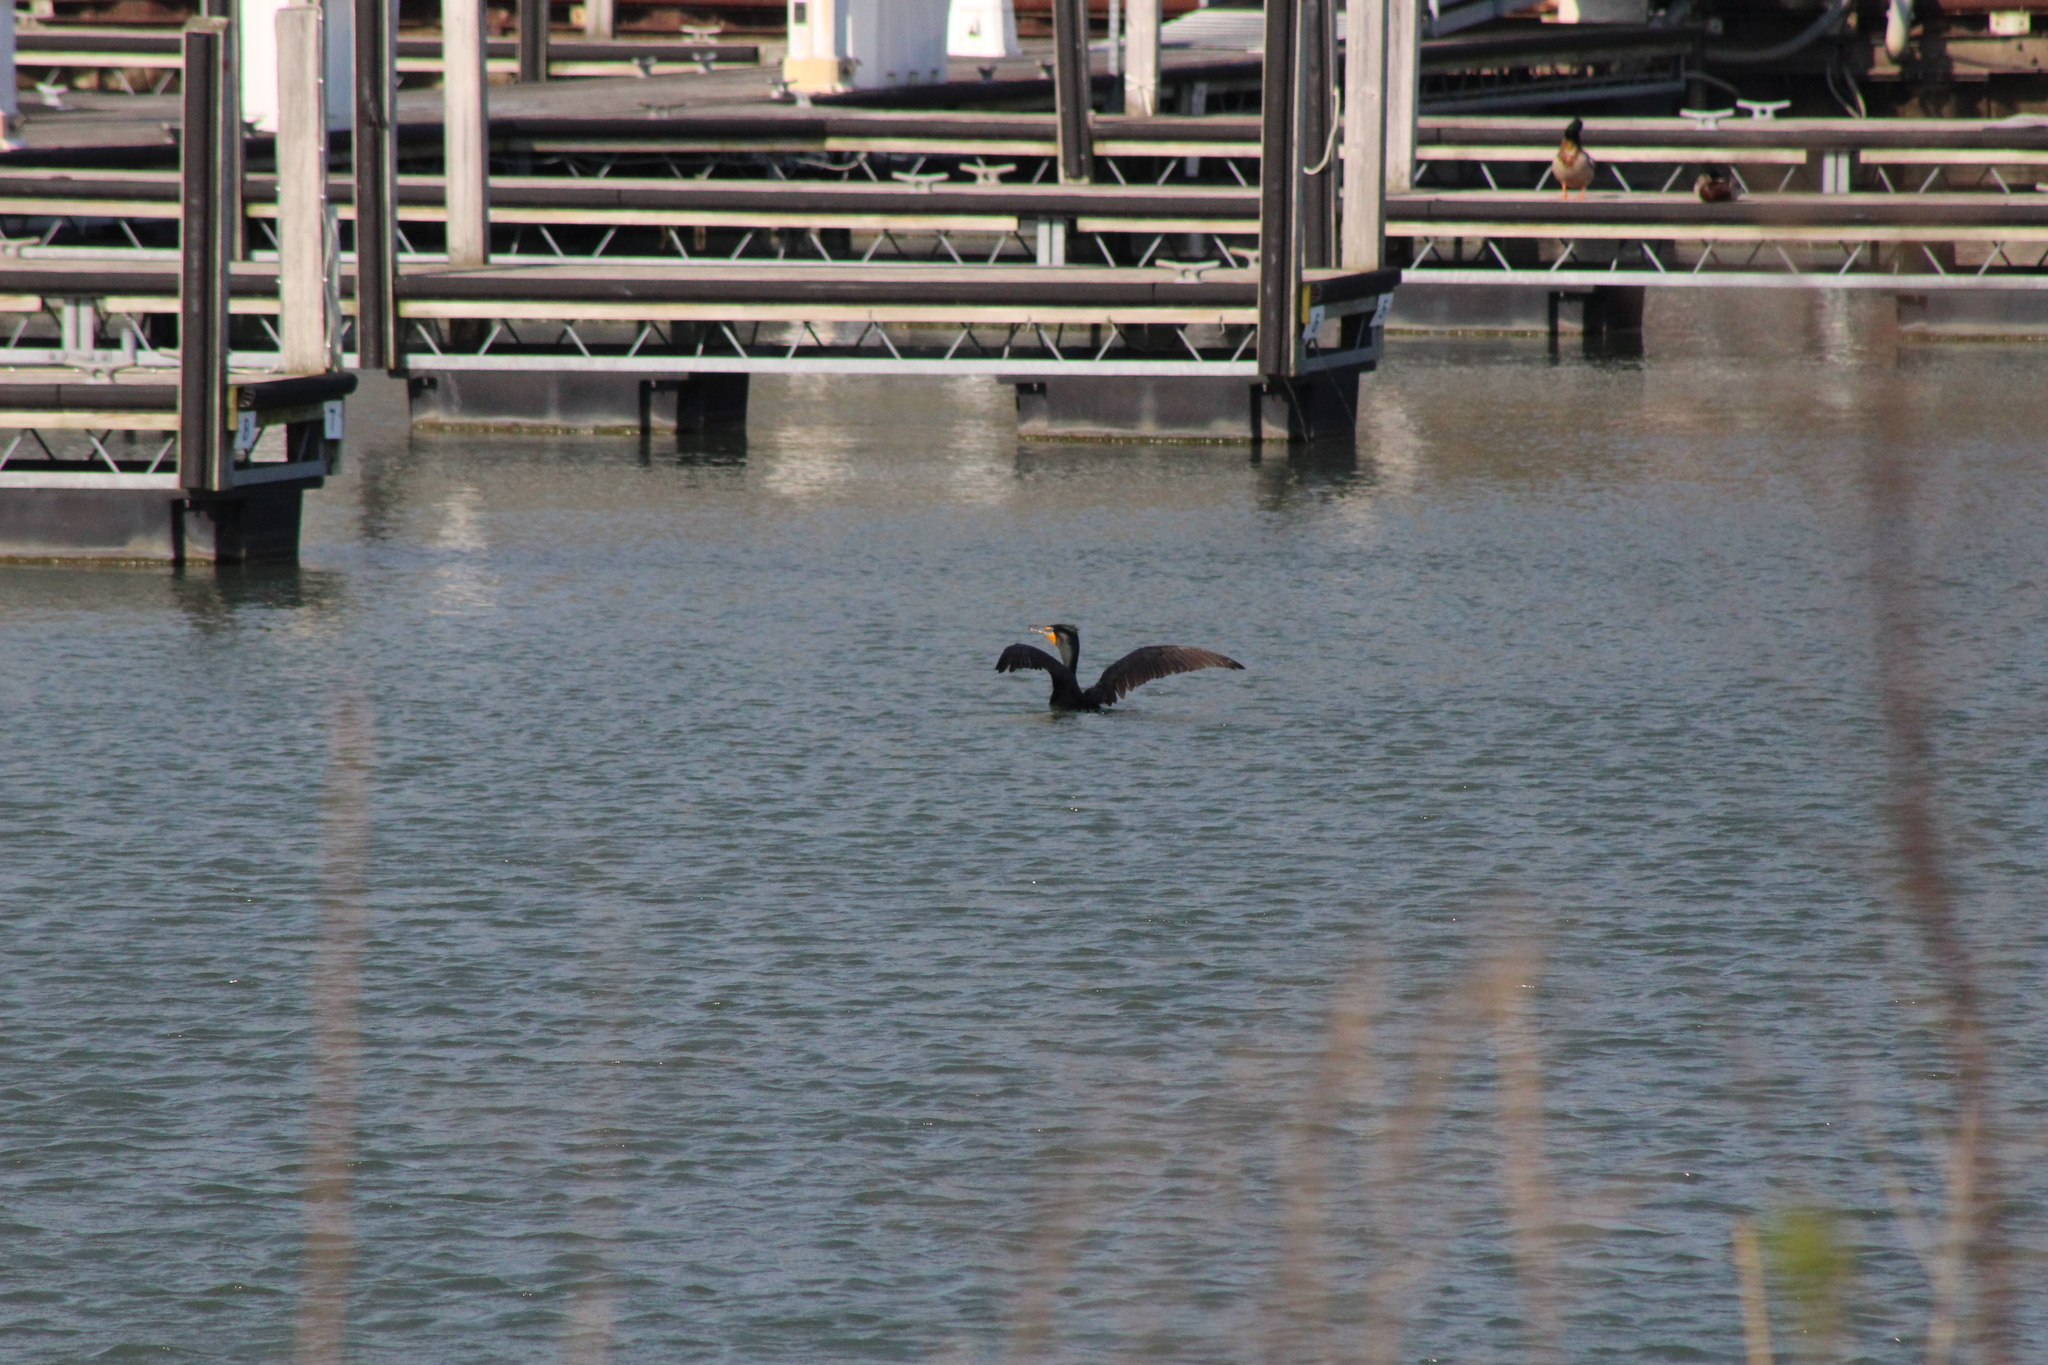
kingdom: Animalia
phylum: Chordata
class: Aves
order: Suliformes
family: Phalacrocoracidae
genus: Phalacrocorax
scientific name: Phalacrocorax auritus
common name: Double-crested cormorant
